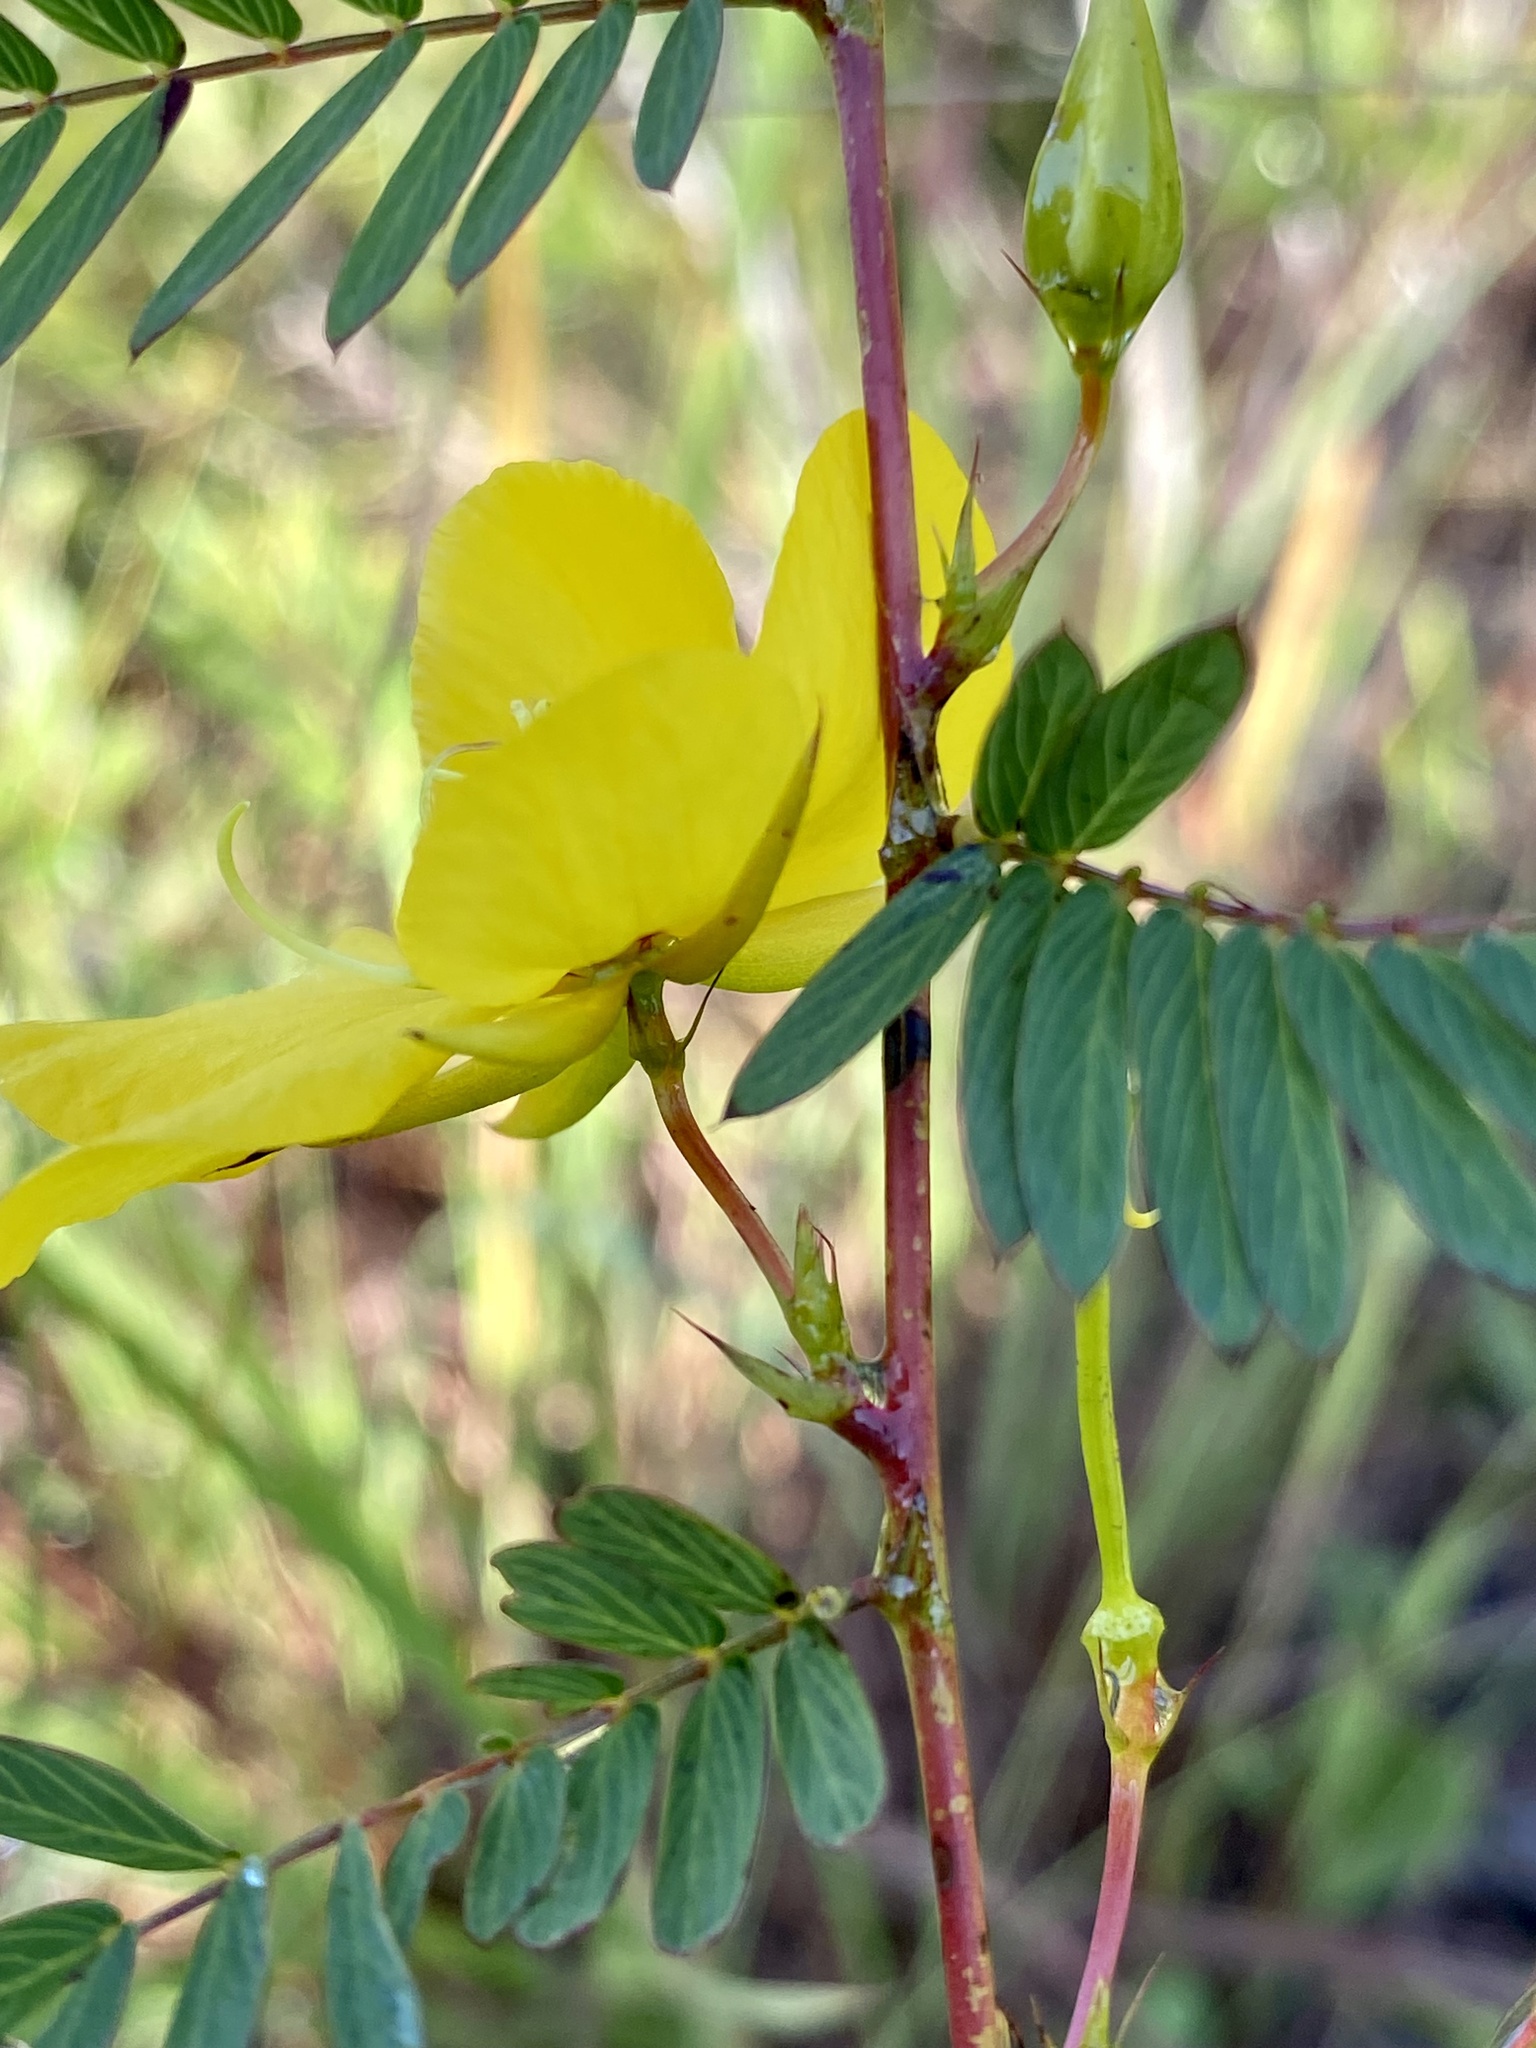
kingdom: Plantae
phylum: Tracheophyta
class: Magnoliopsida
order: Fabales
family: Fabaceae
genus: Chamaecrista
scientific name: Chamaecrista fasciculata
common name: Golden cassia
